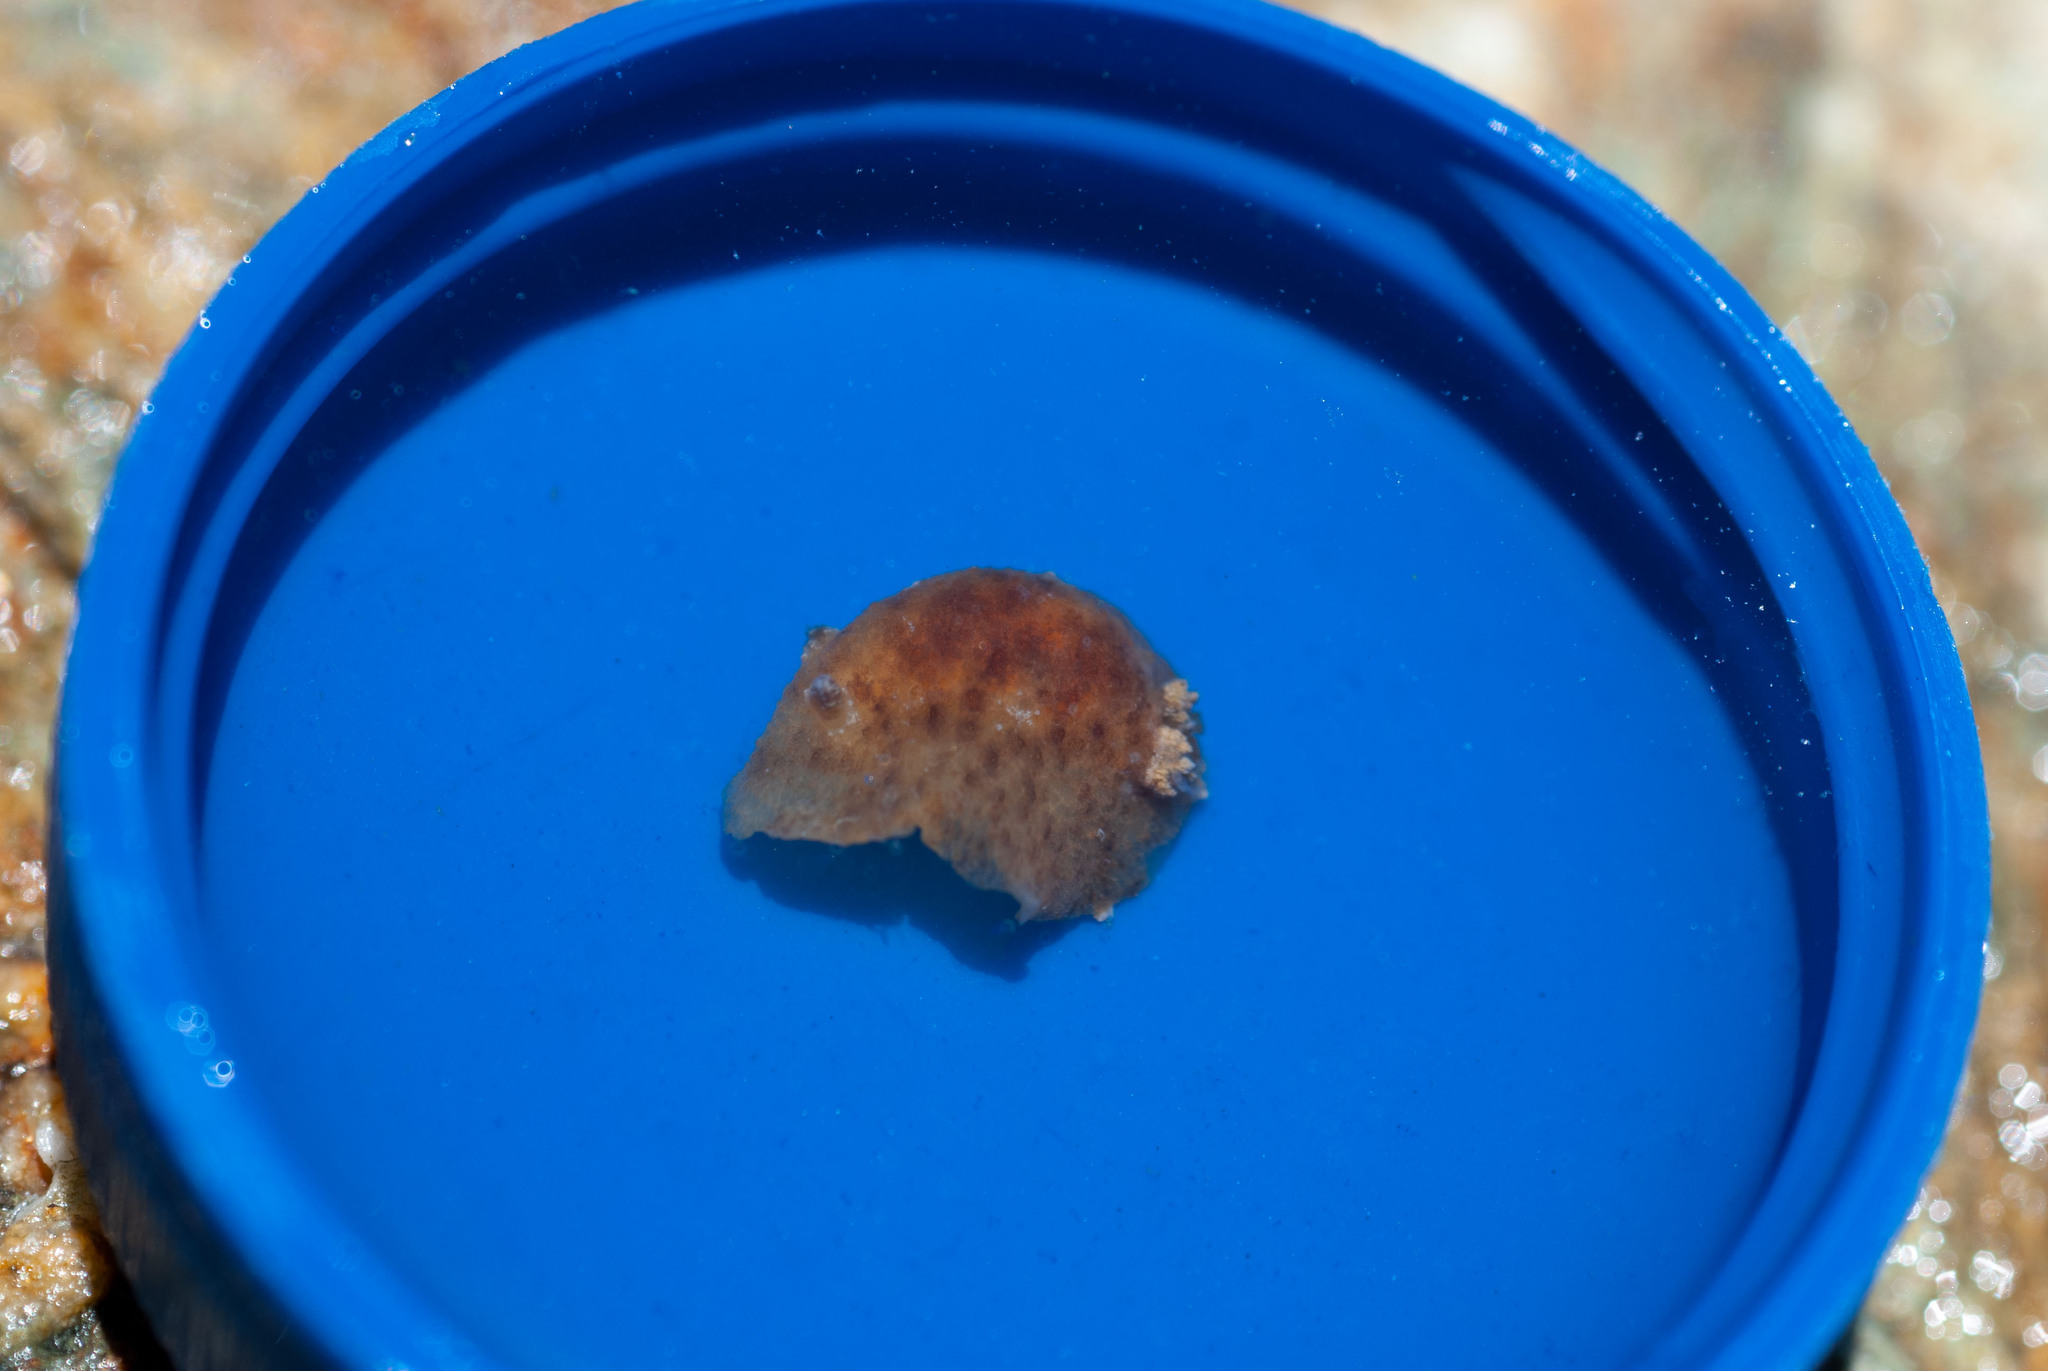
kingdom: Animalia
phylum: Mollusca
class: Gastropoda
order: Nudibranchia
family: Discodorididae
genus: Taringa
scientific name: Taringa telopia
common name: Orangeball taringa
